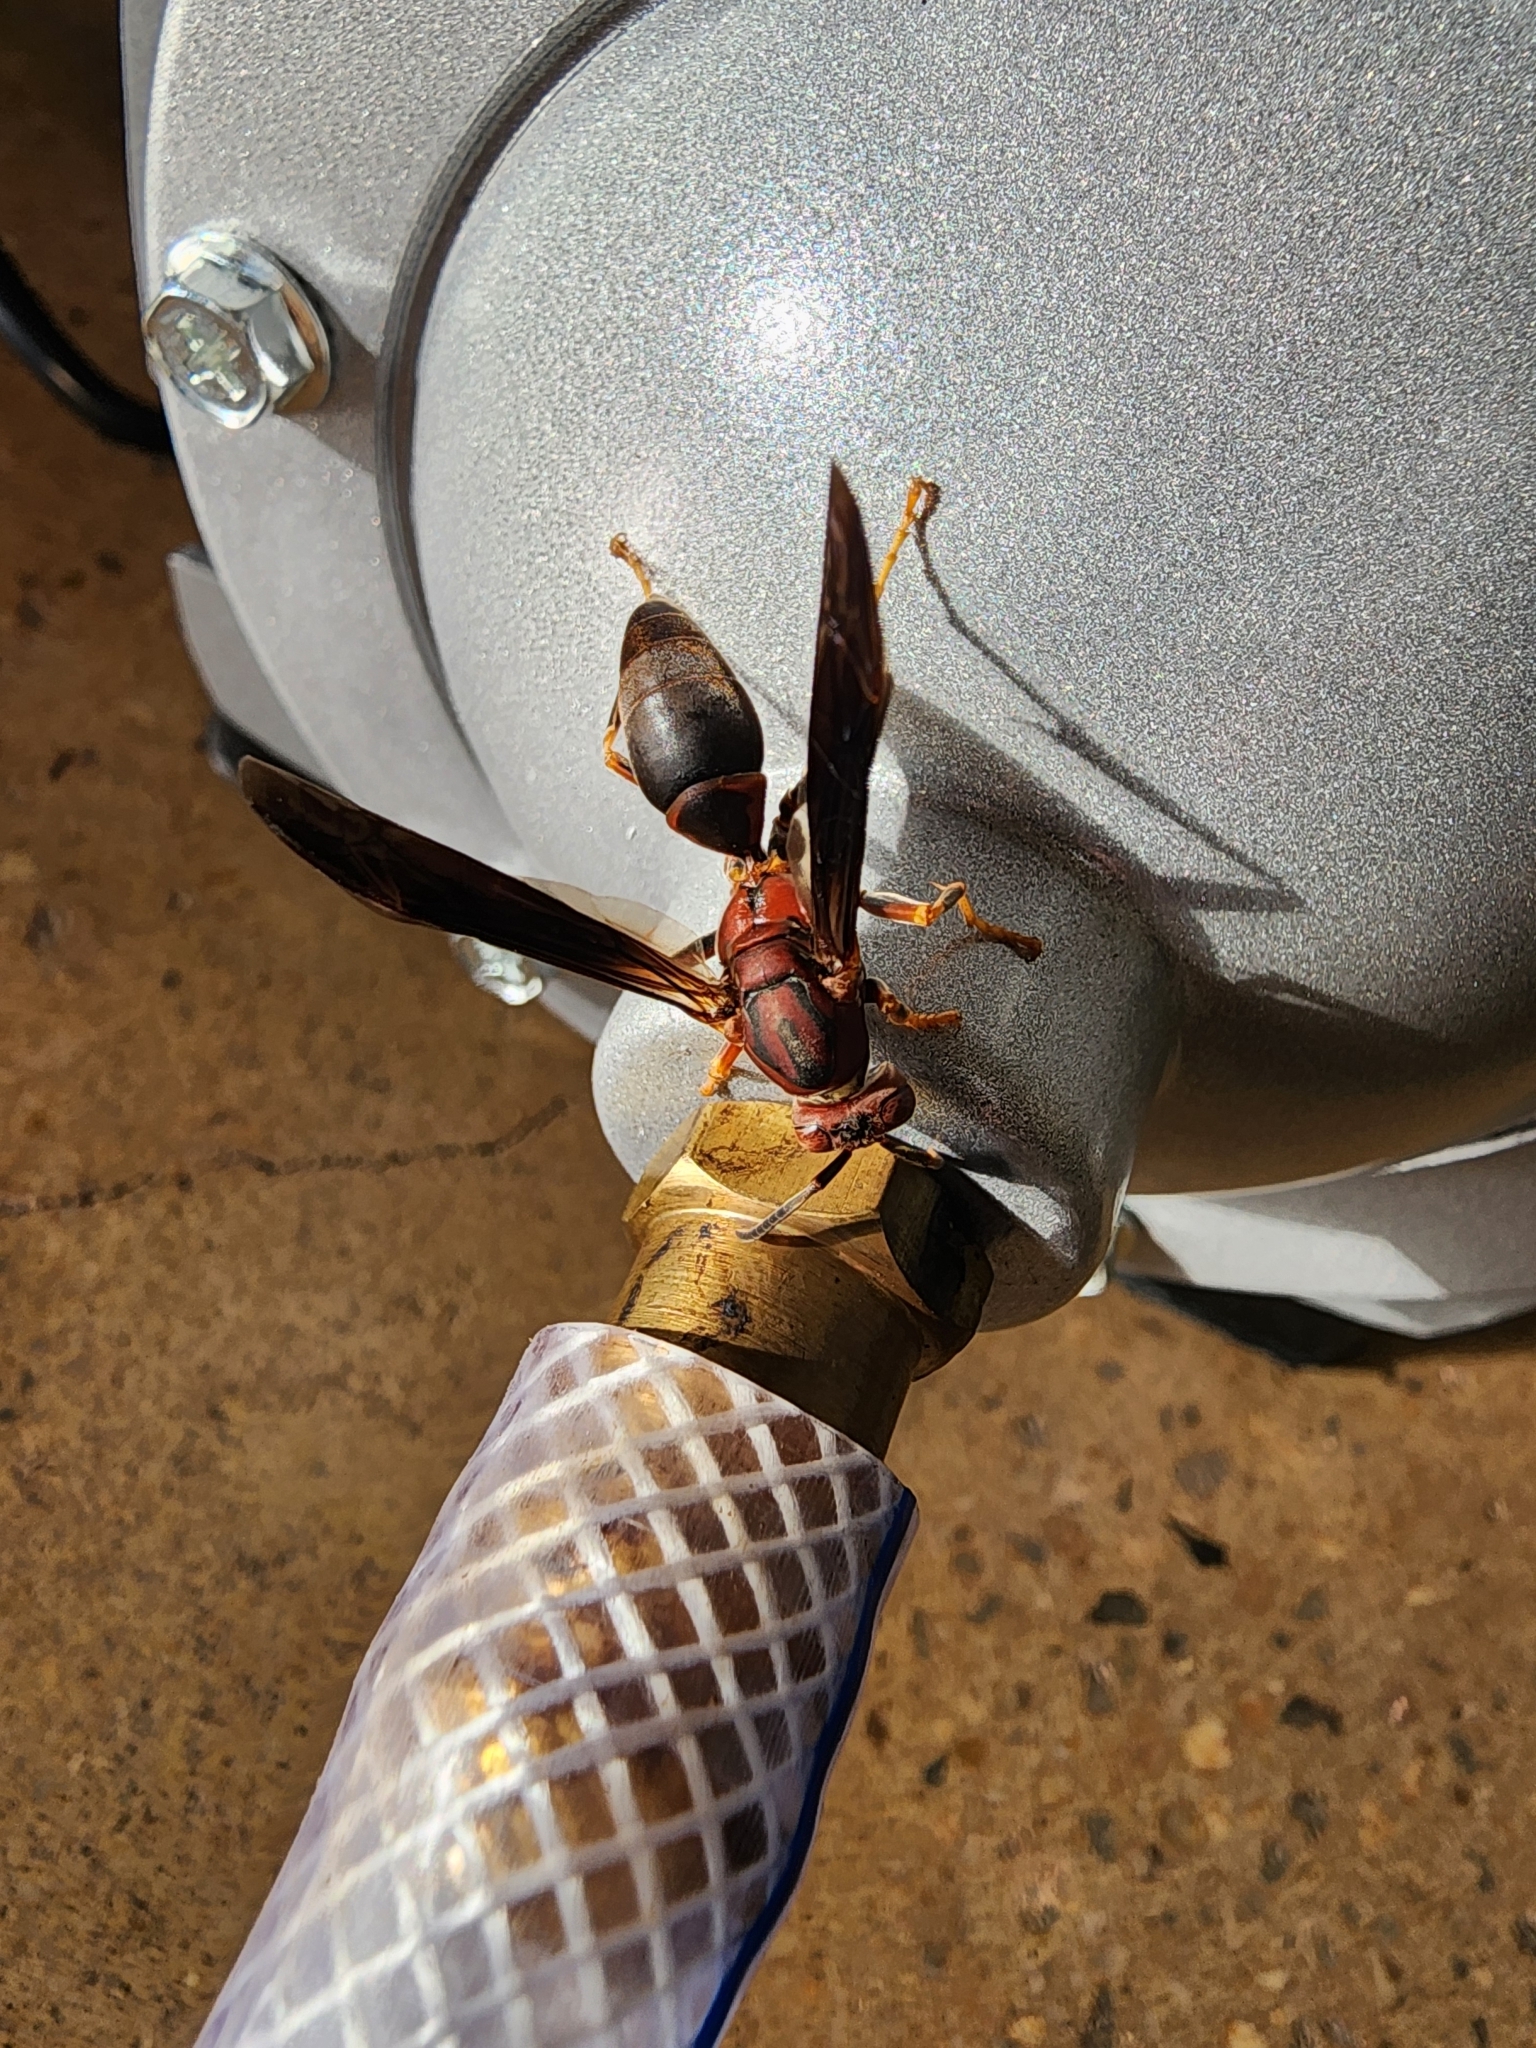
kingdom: Animalia
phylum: Arthropoda
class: Insecta
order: Hymenoptera
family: Eumenidae
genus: Polistes
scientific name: Polistes metricus
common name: Metric paper wasp
